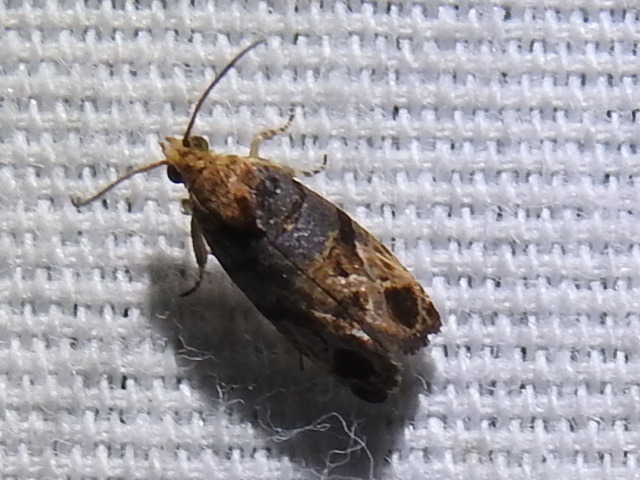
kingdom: Animalia
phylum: Arthropoda
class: Insecta
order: Lepidoptera
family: Tortricidae
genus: Paralobesia
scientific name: Paralobesia viteana
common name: Grape berry moth
